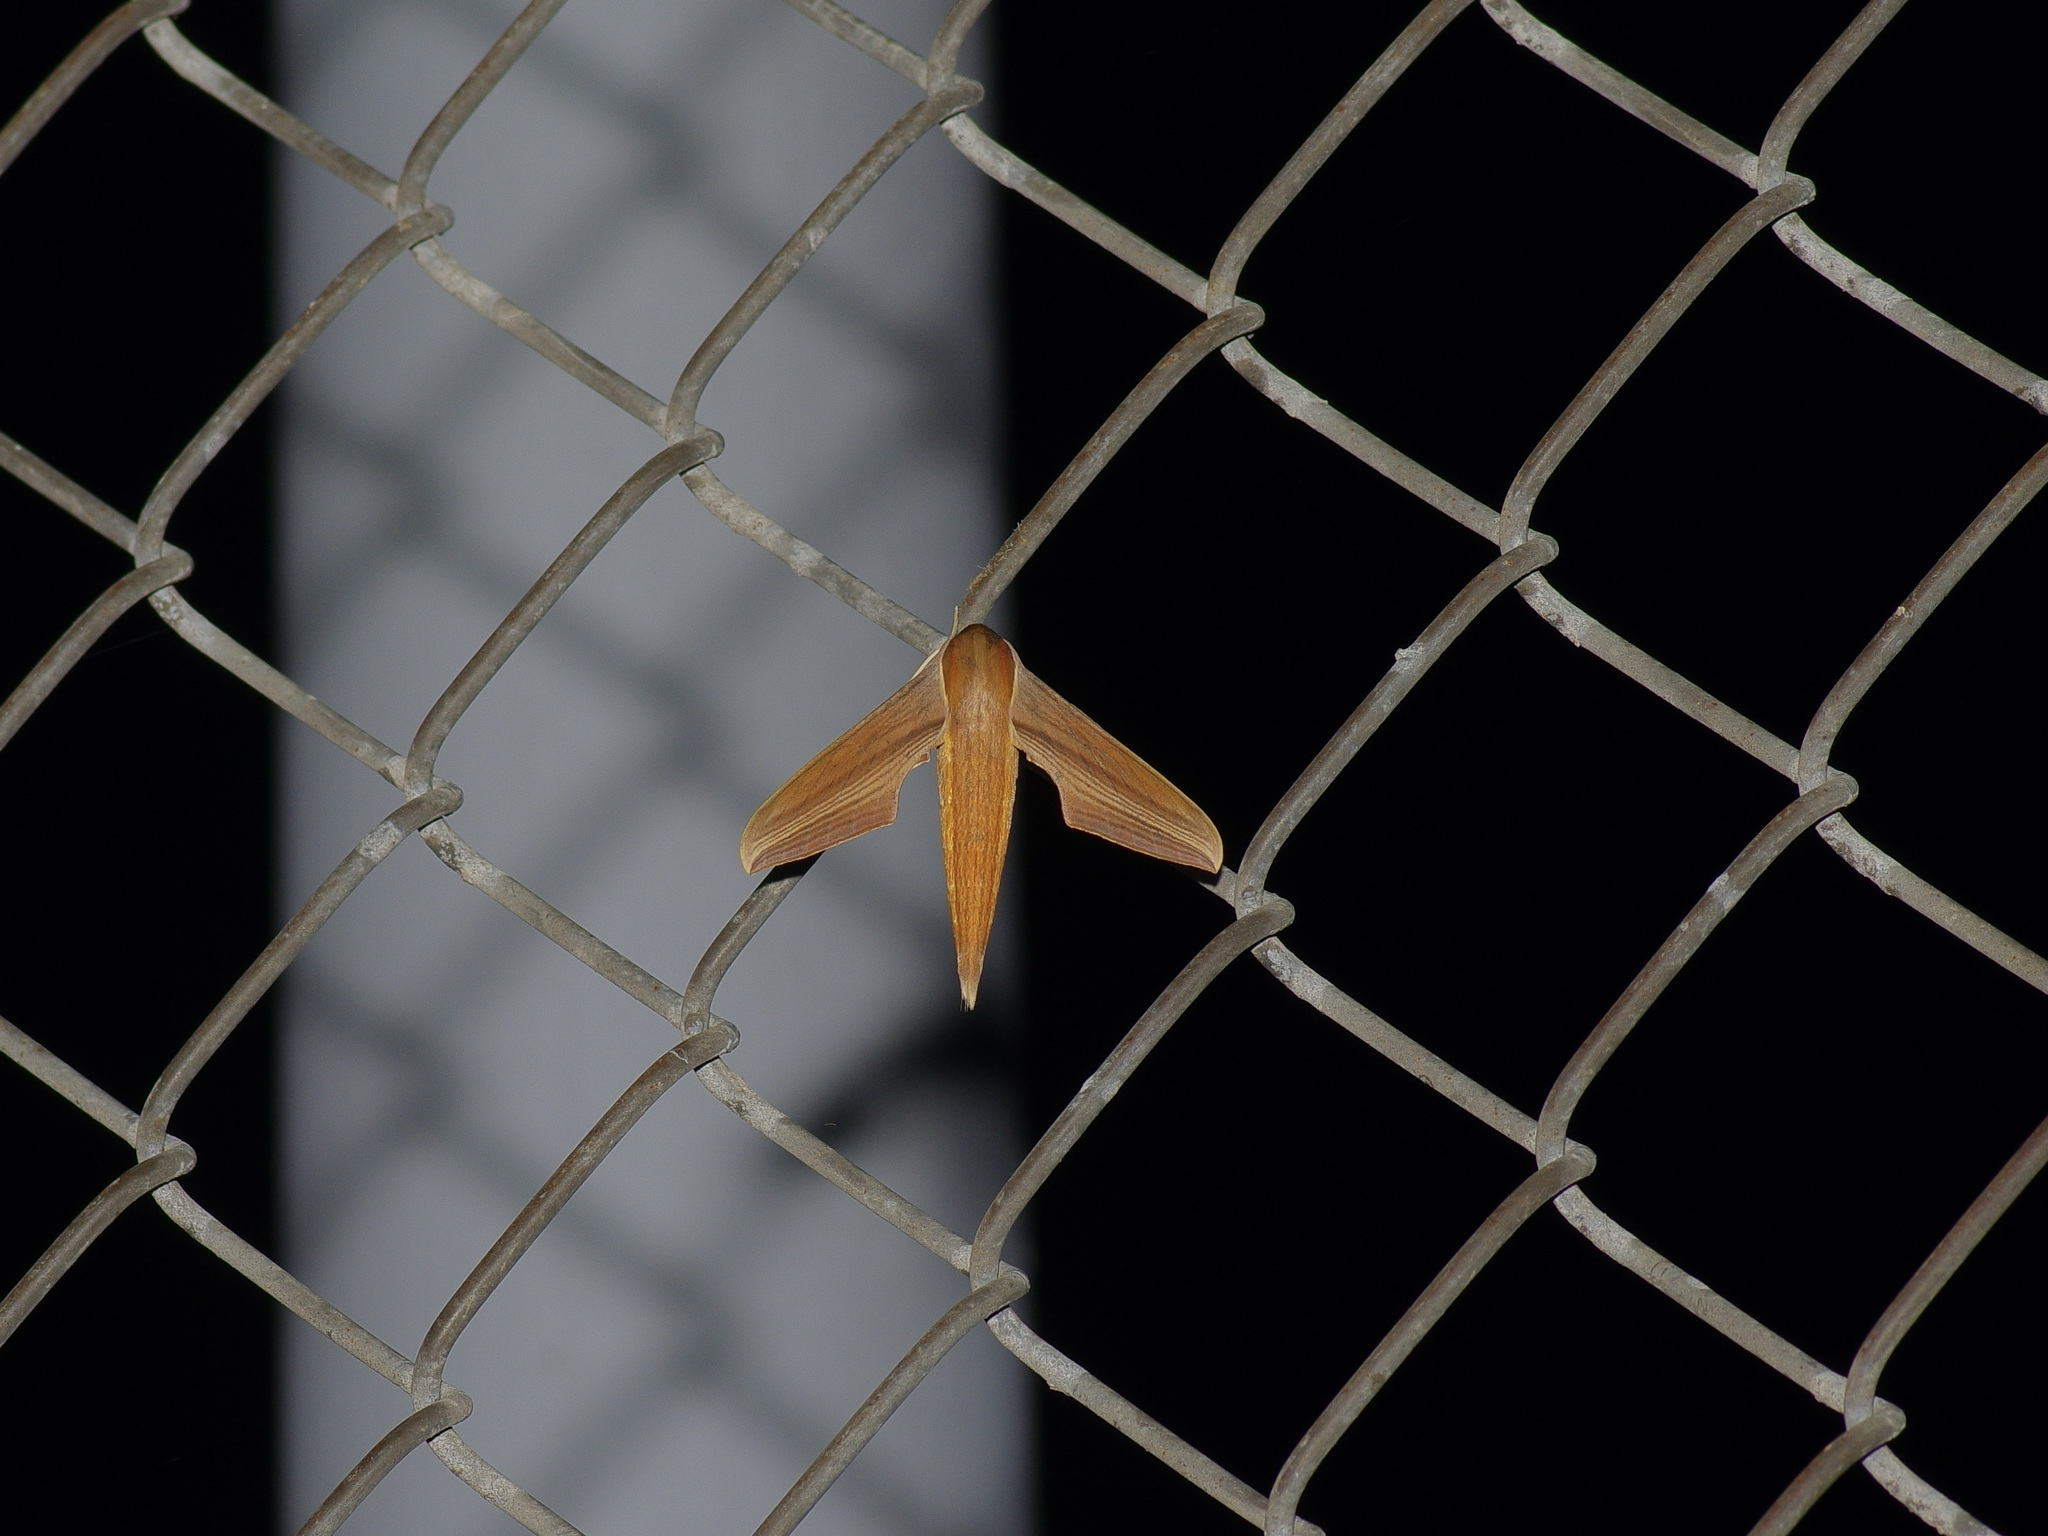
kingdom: Animalia
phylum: Arthropoda
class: Insecta
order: Lepidoptera
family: Sphingidae
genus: Xylophanes
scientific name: Xylophanes tersa
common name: Tersa sphinx
